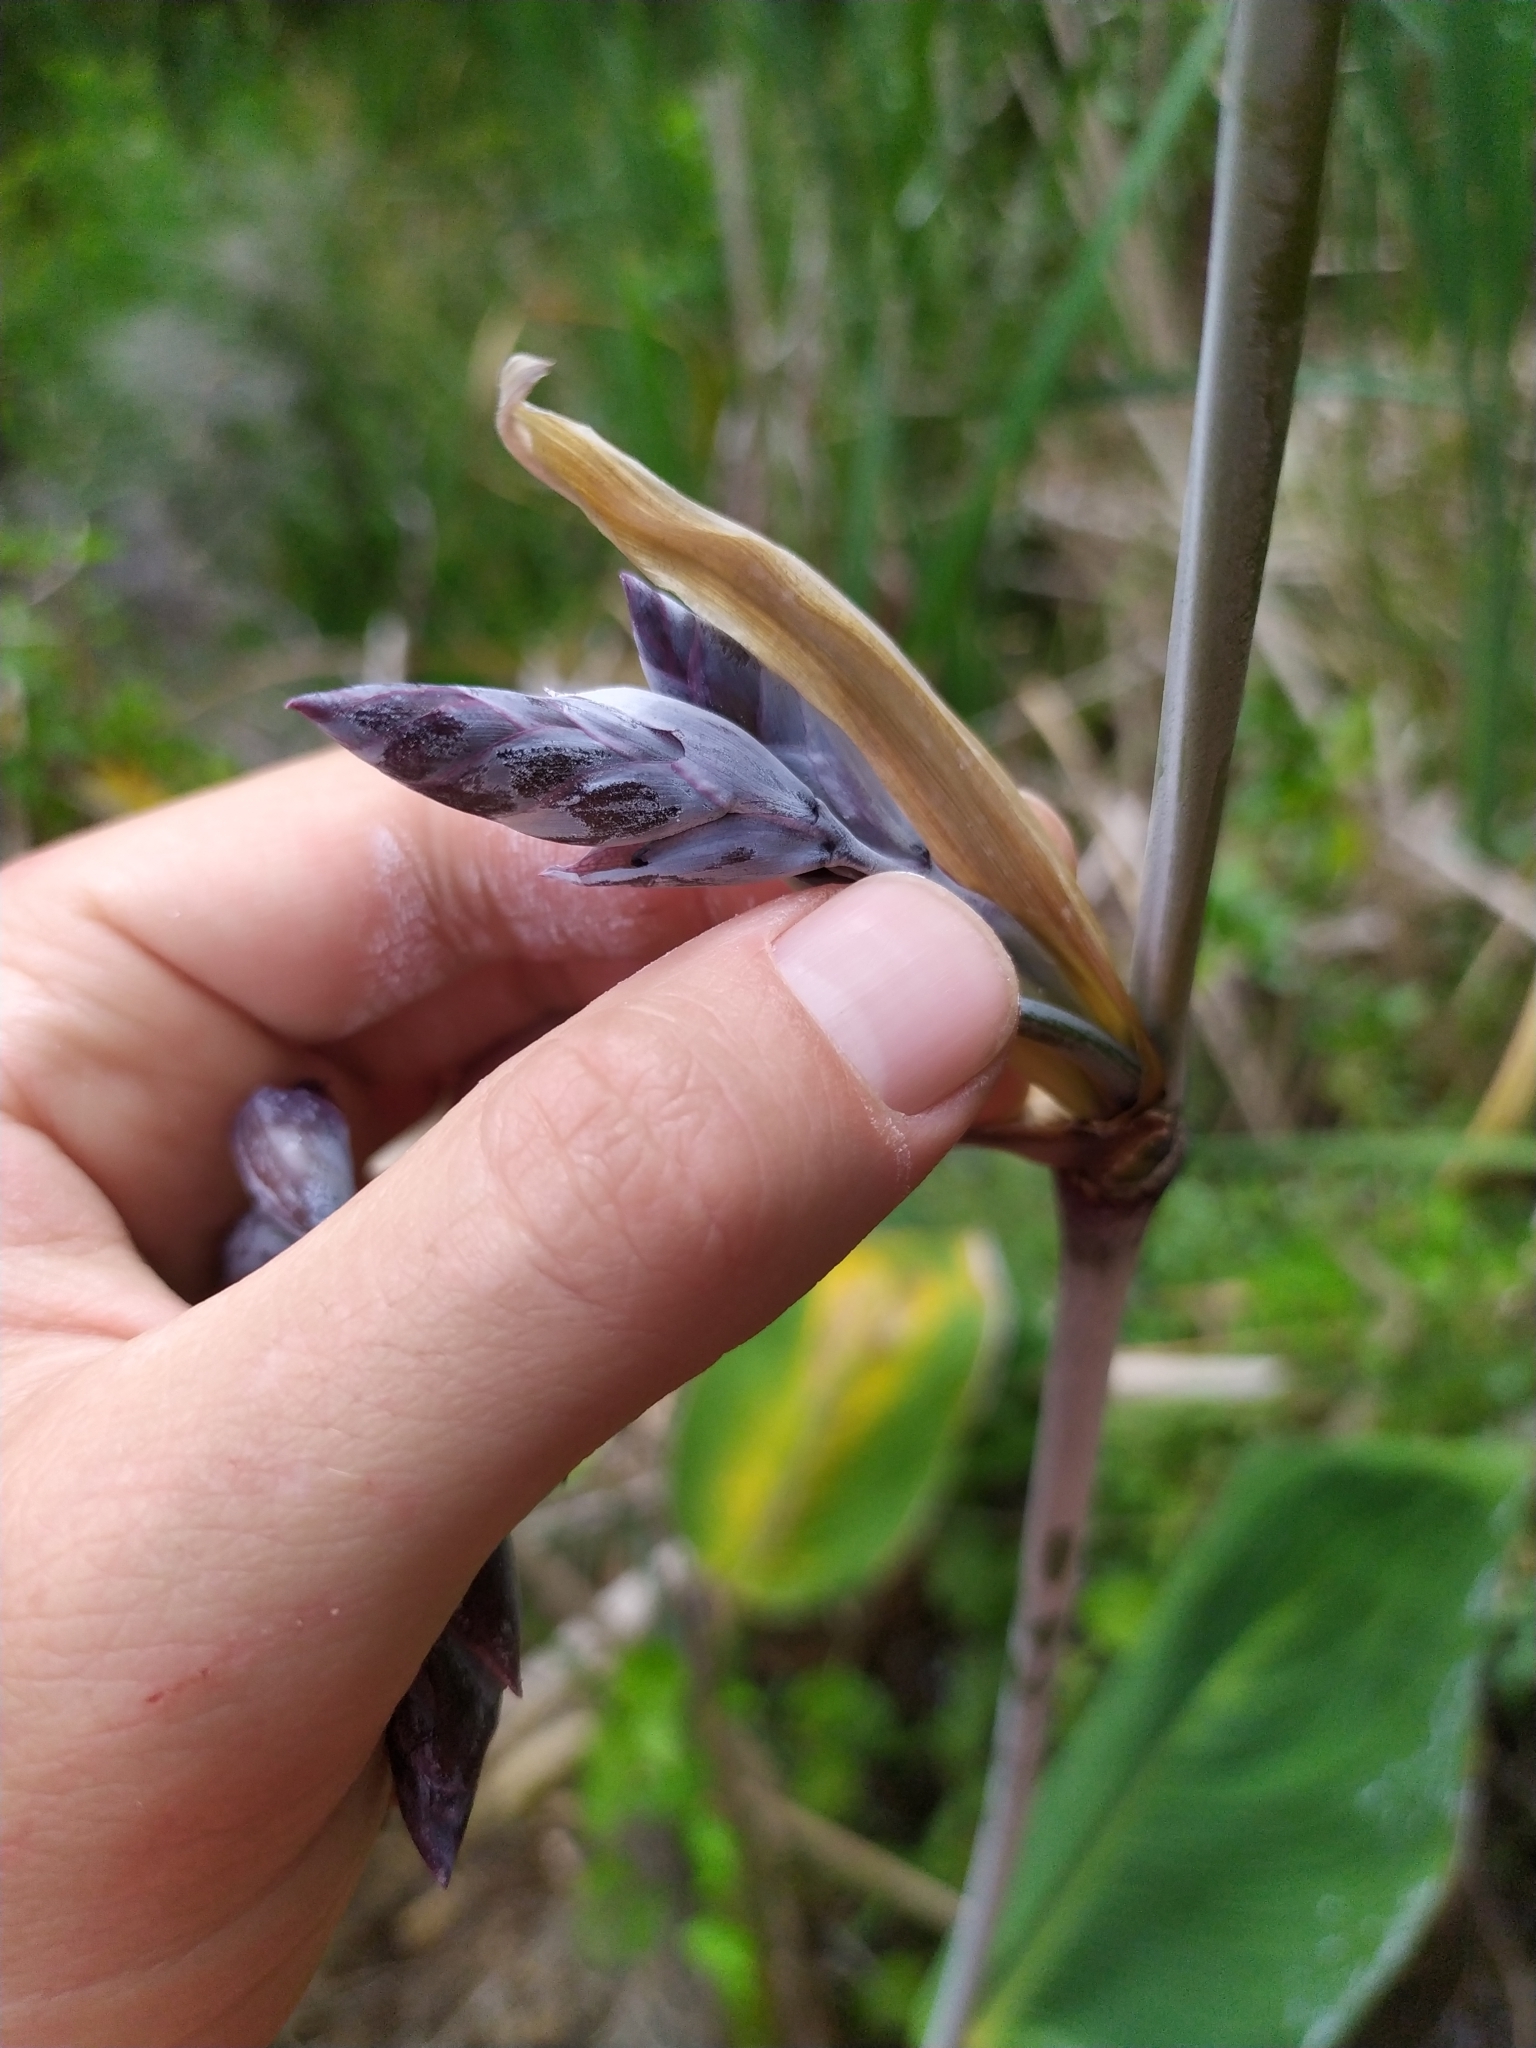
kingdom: Plantae
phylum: Tracheophyta
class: Liliopsida
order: Zingiberales
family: Marantaceae
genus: Thalia
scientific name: Thalia dealbata
